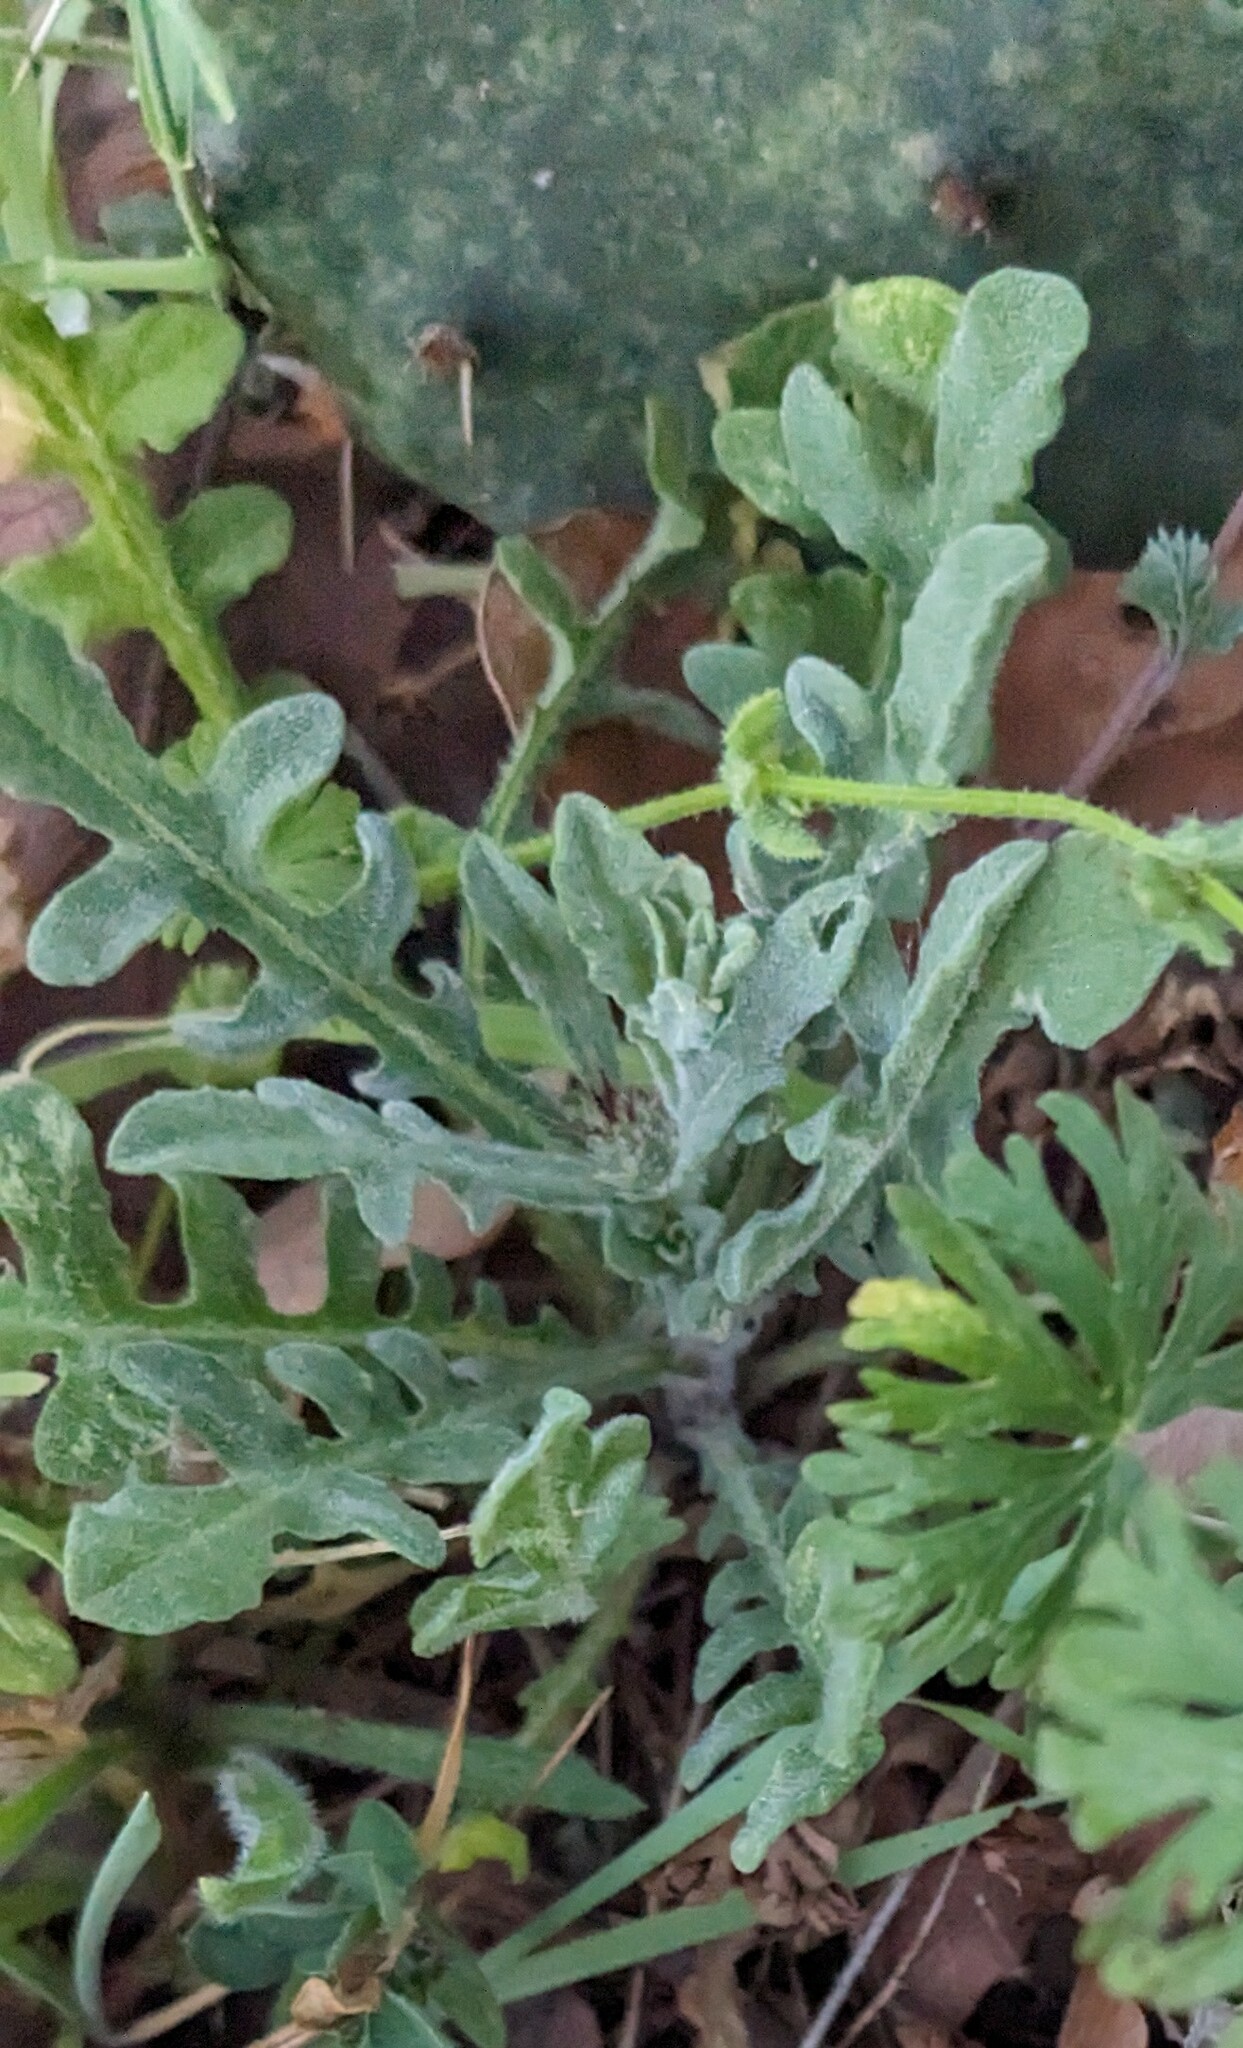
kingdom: Plantae
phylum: Tracheophyta
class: Magnoliopsida
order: Asterales
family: Asteraceae
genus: Centaurea
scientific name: Centaurea melitensis
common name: Maltese star-thistle
